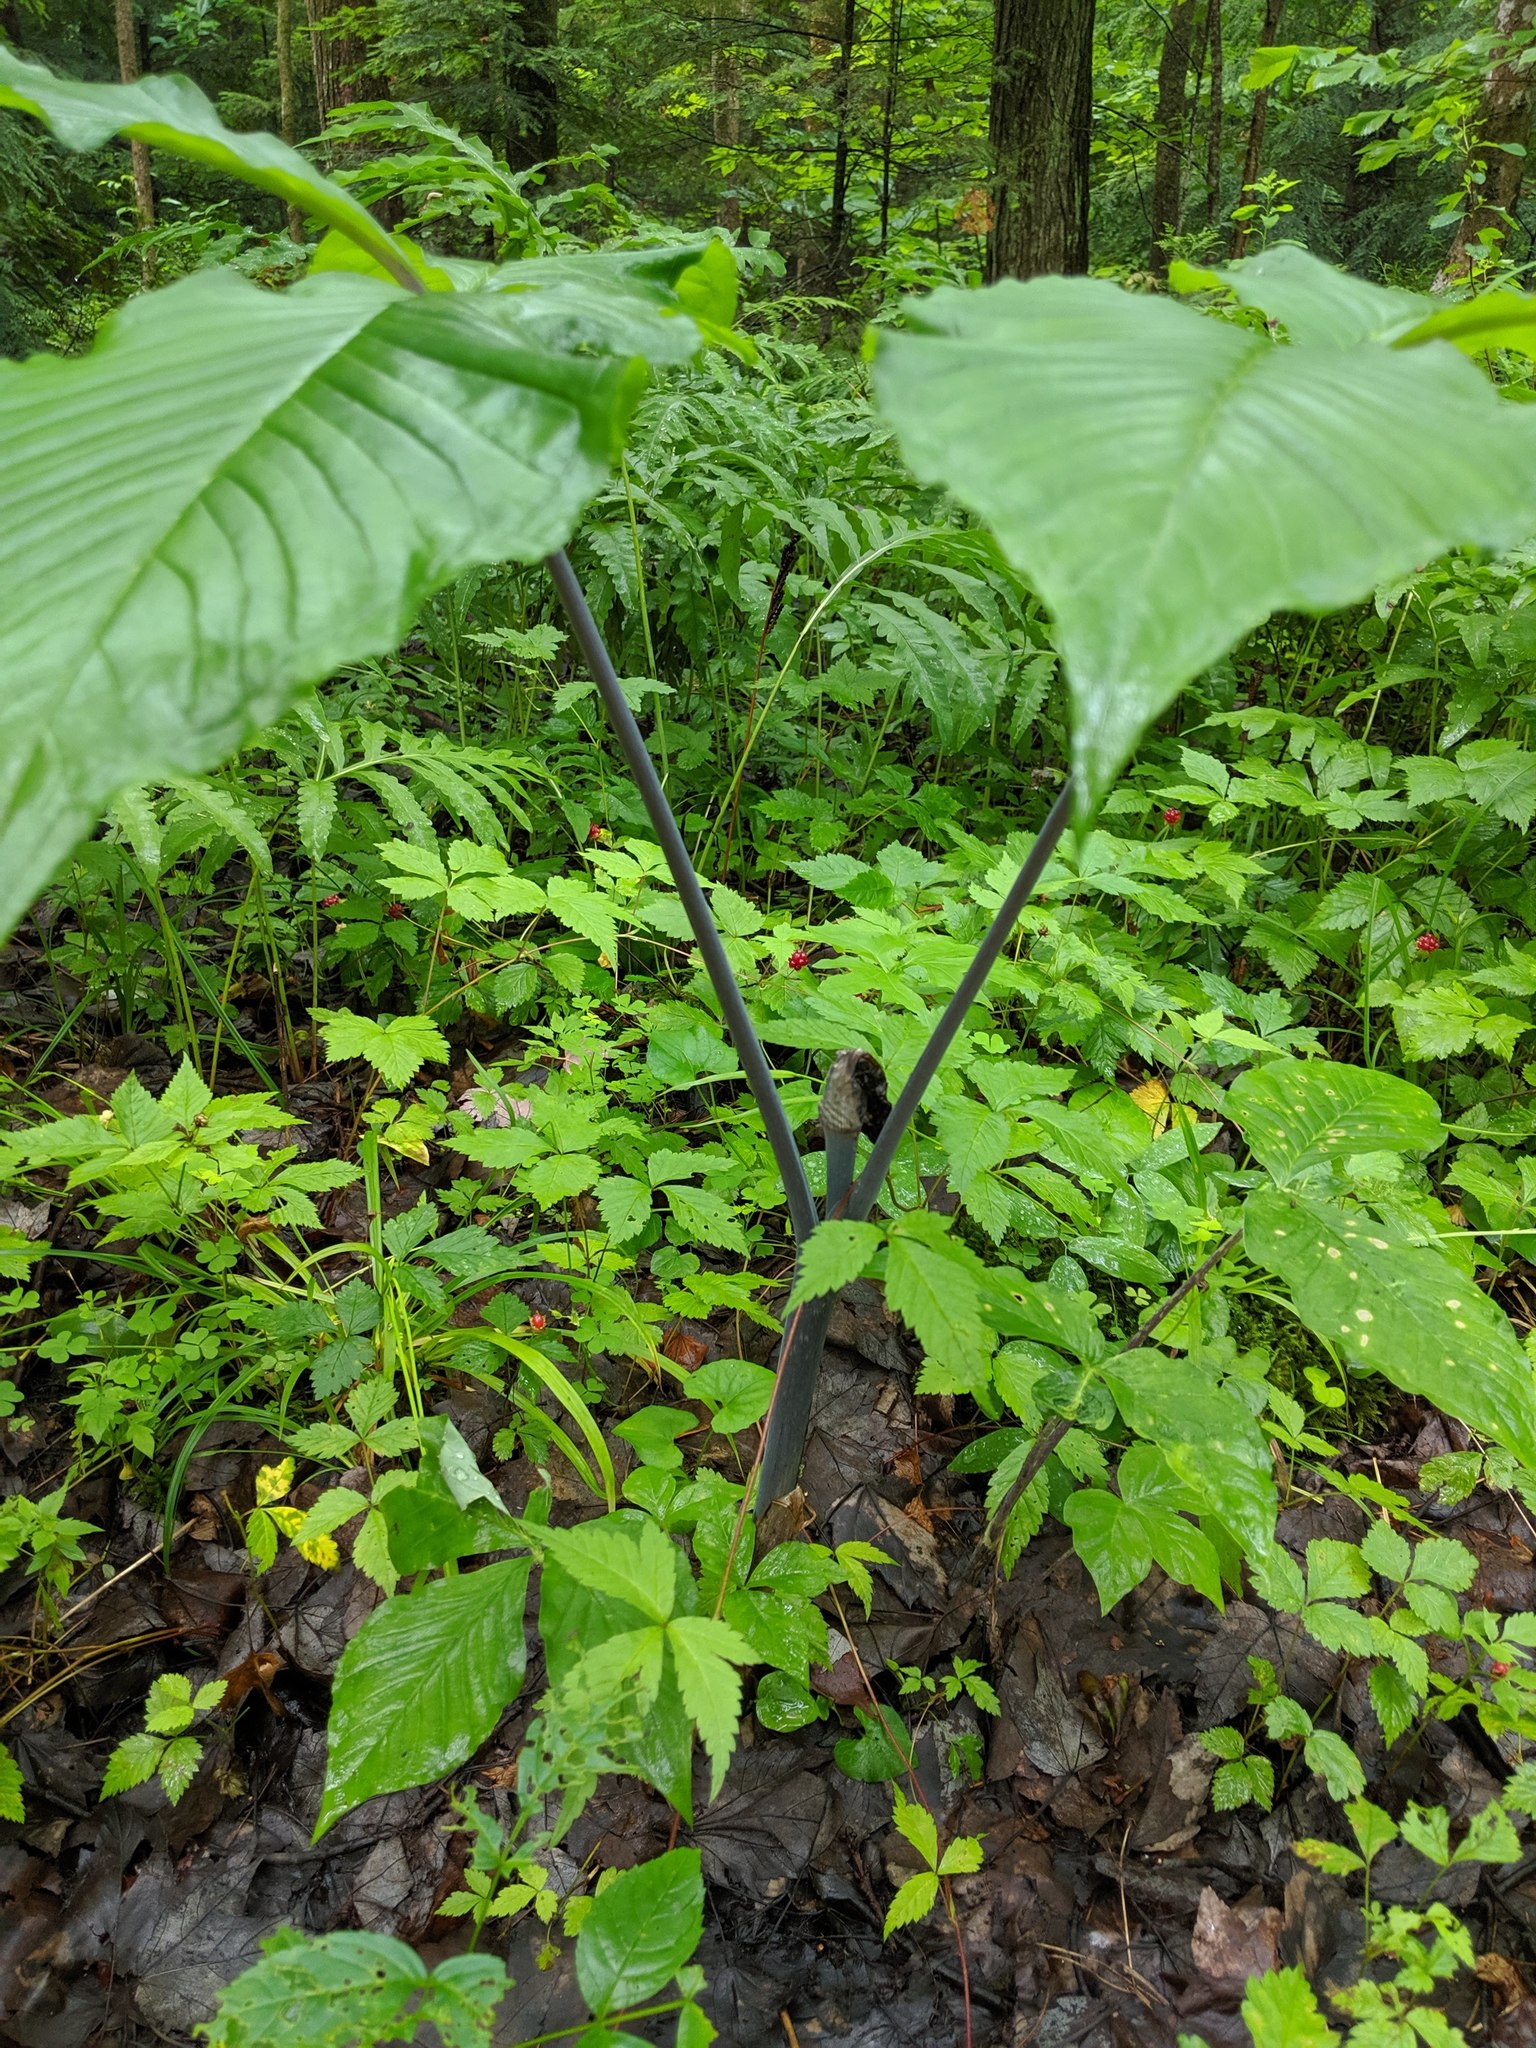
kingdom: Plantae
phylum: Tracheophyta
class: Liliopsida
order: Alismatales
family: Araceae
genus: Arisaema
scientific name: Arisaema triphyllum
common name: Jack-in-the-pulpit
